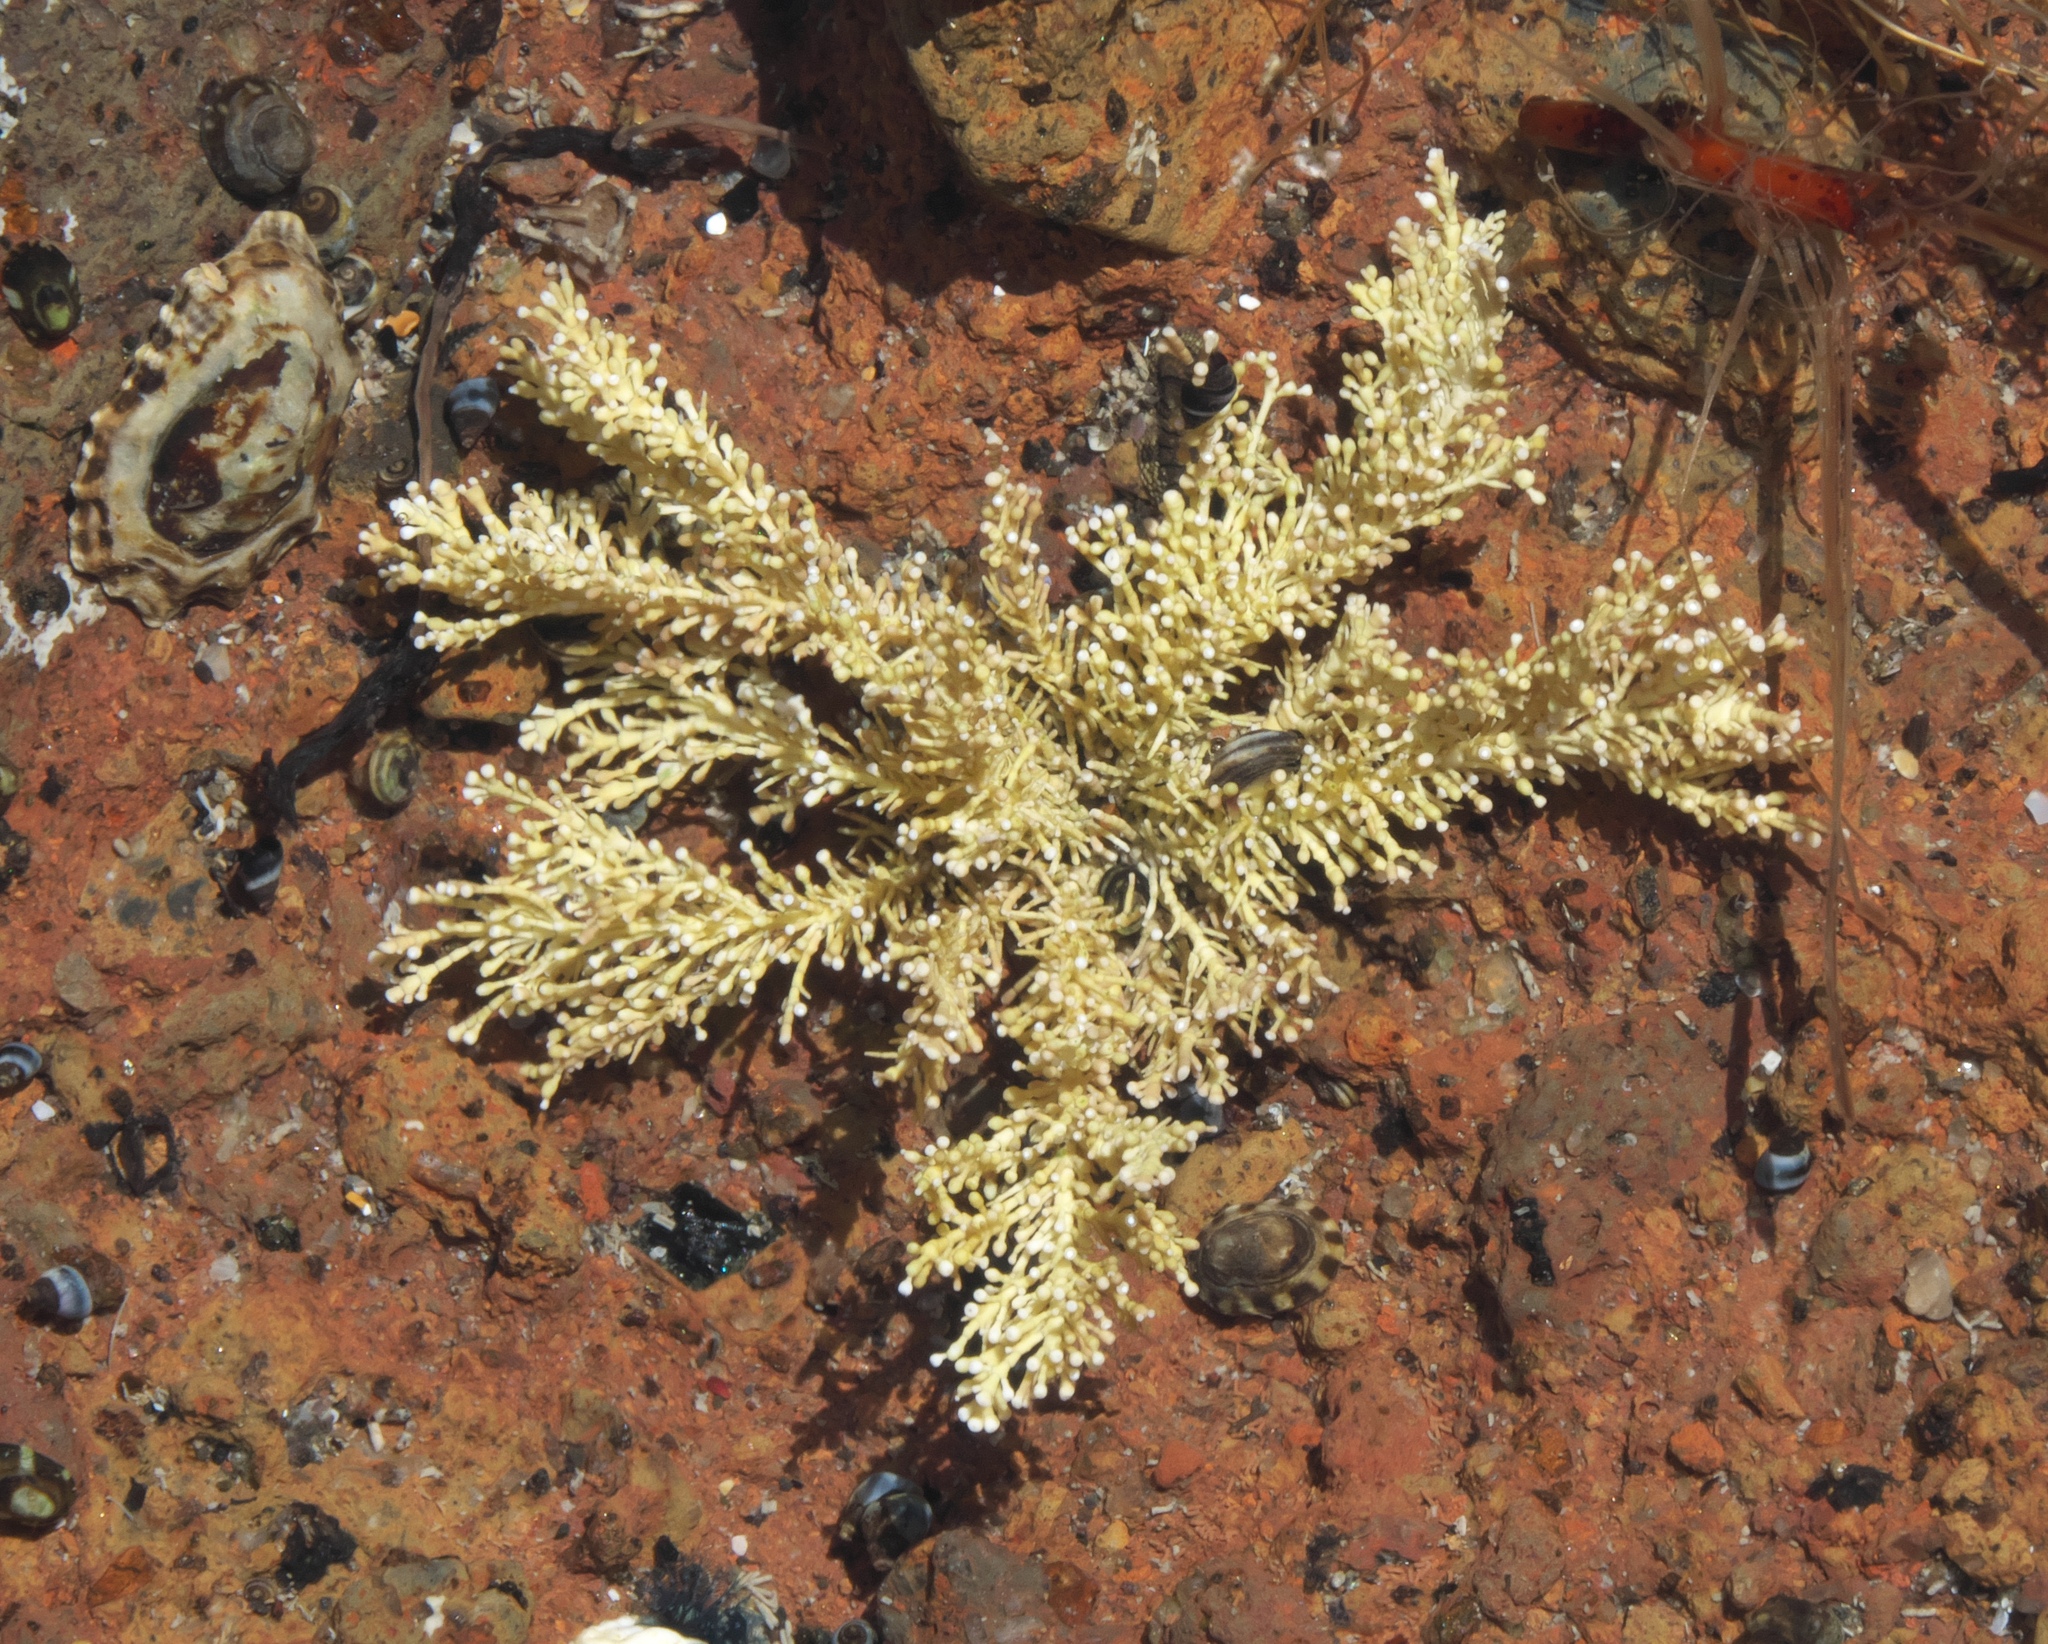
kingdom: Plantae
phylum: Rhodophyta
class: Florideophyceae
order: Corallinales
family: Corallinaceae
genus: Corallina
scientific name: Corallina officinalis
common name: Coral weed
